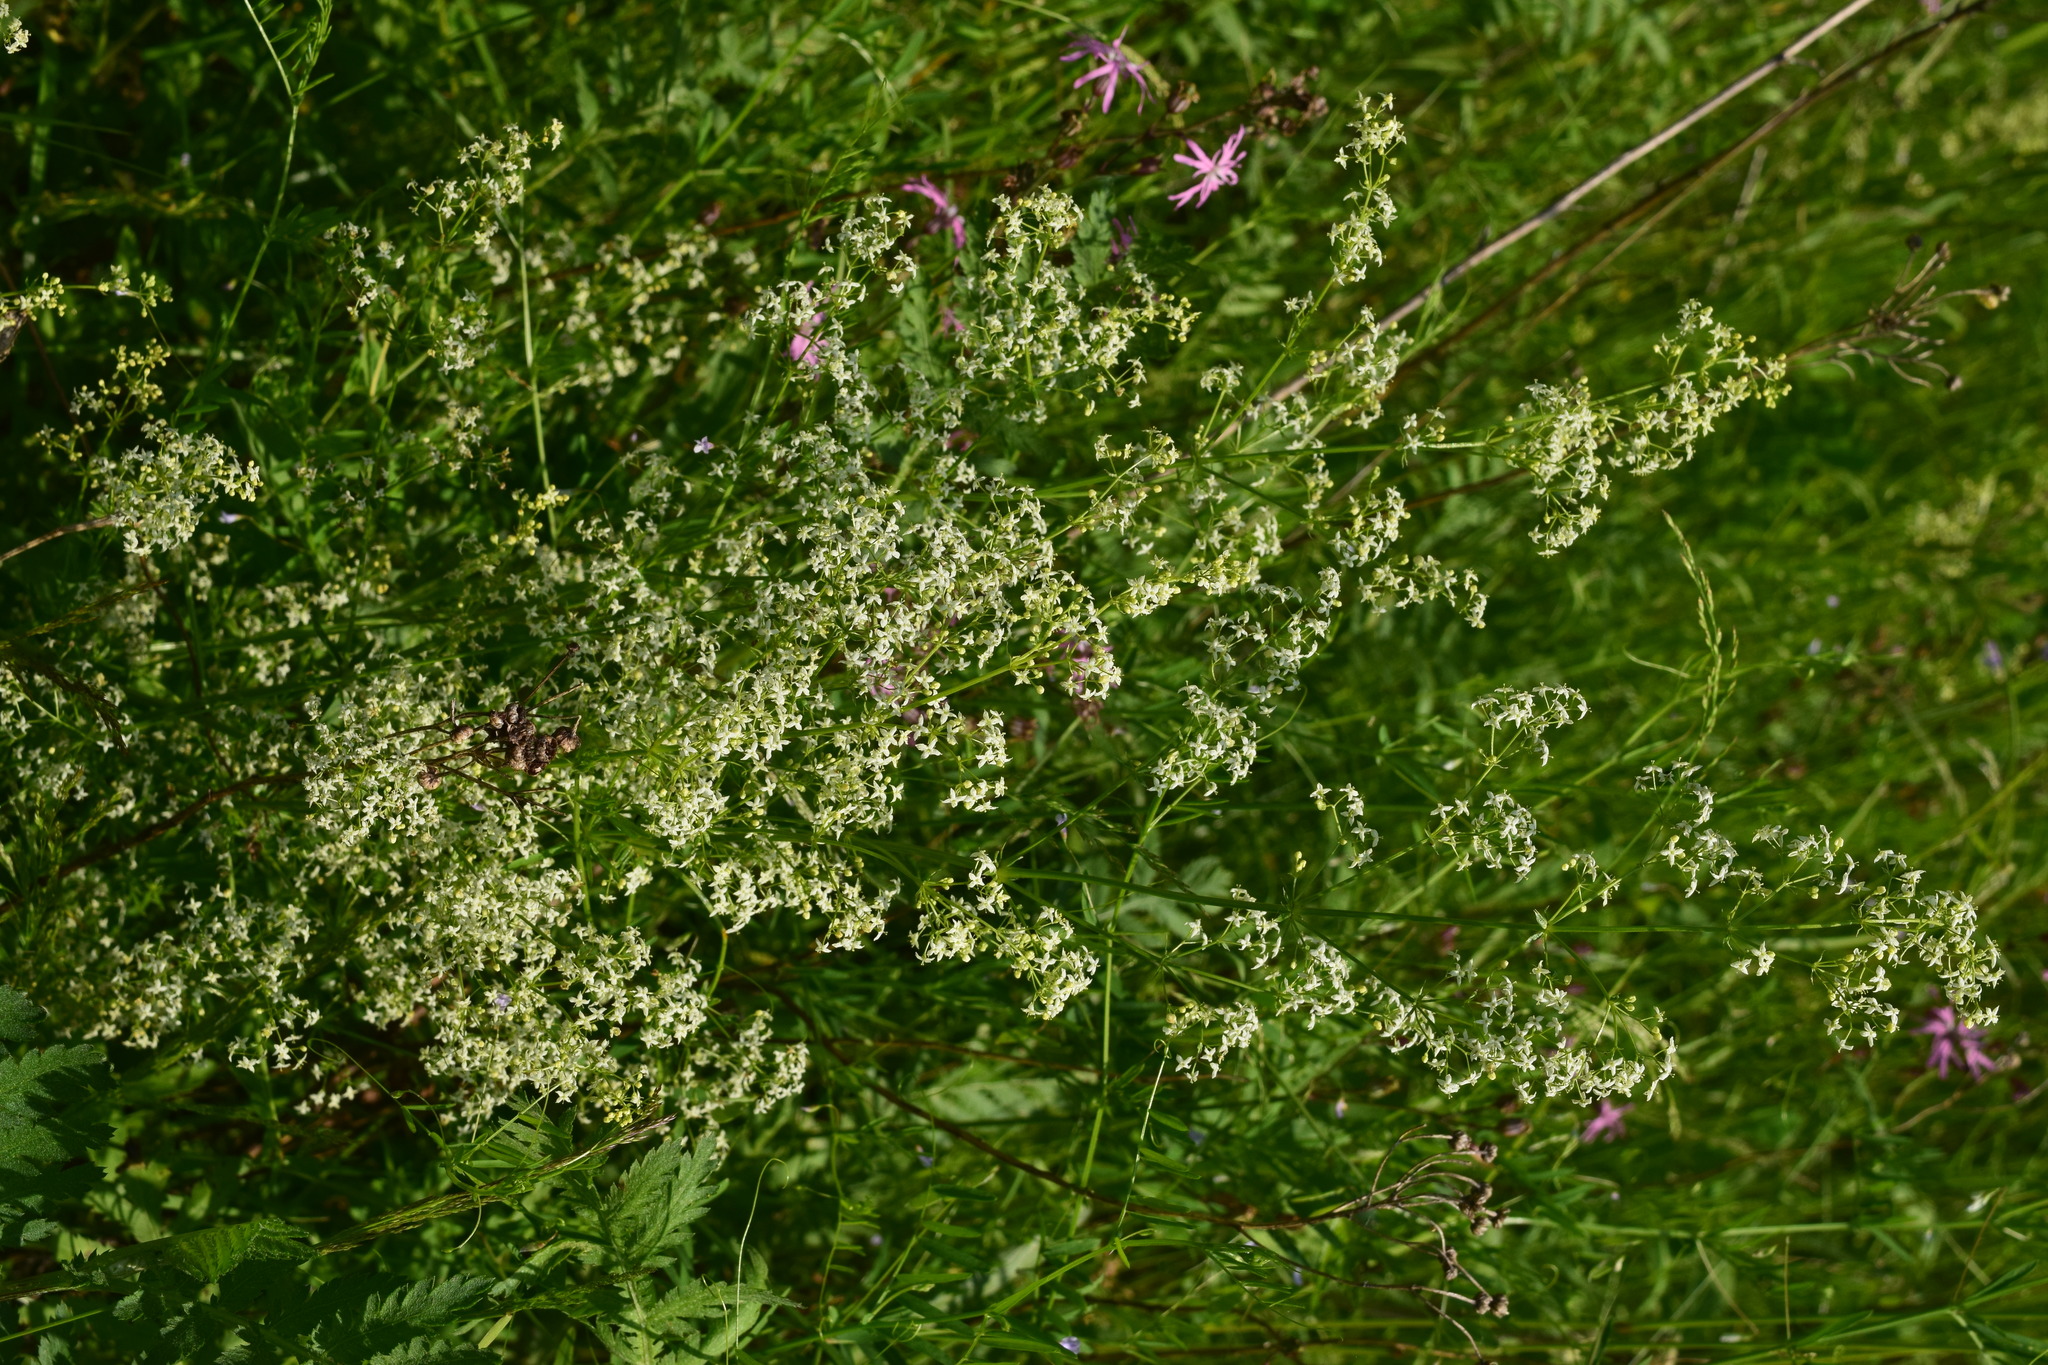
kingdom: Plantae
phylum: Tracheophyta
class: Magnoliopsida
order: Gentianales
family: Rubiaceae
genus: Galium
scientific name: Galium mollugo
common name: Hedge bedstraw
